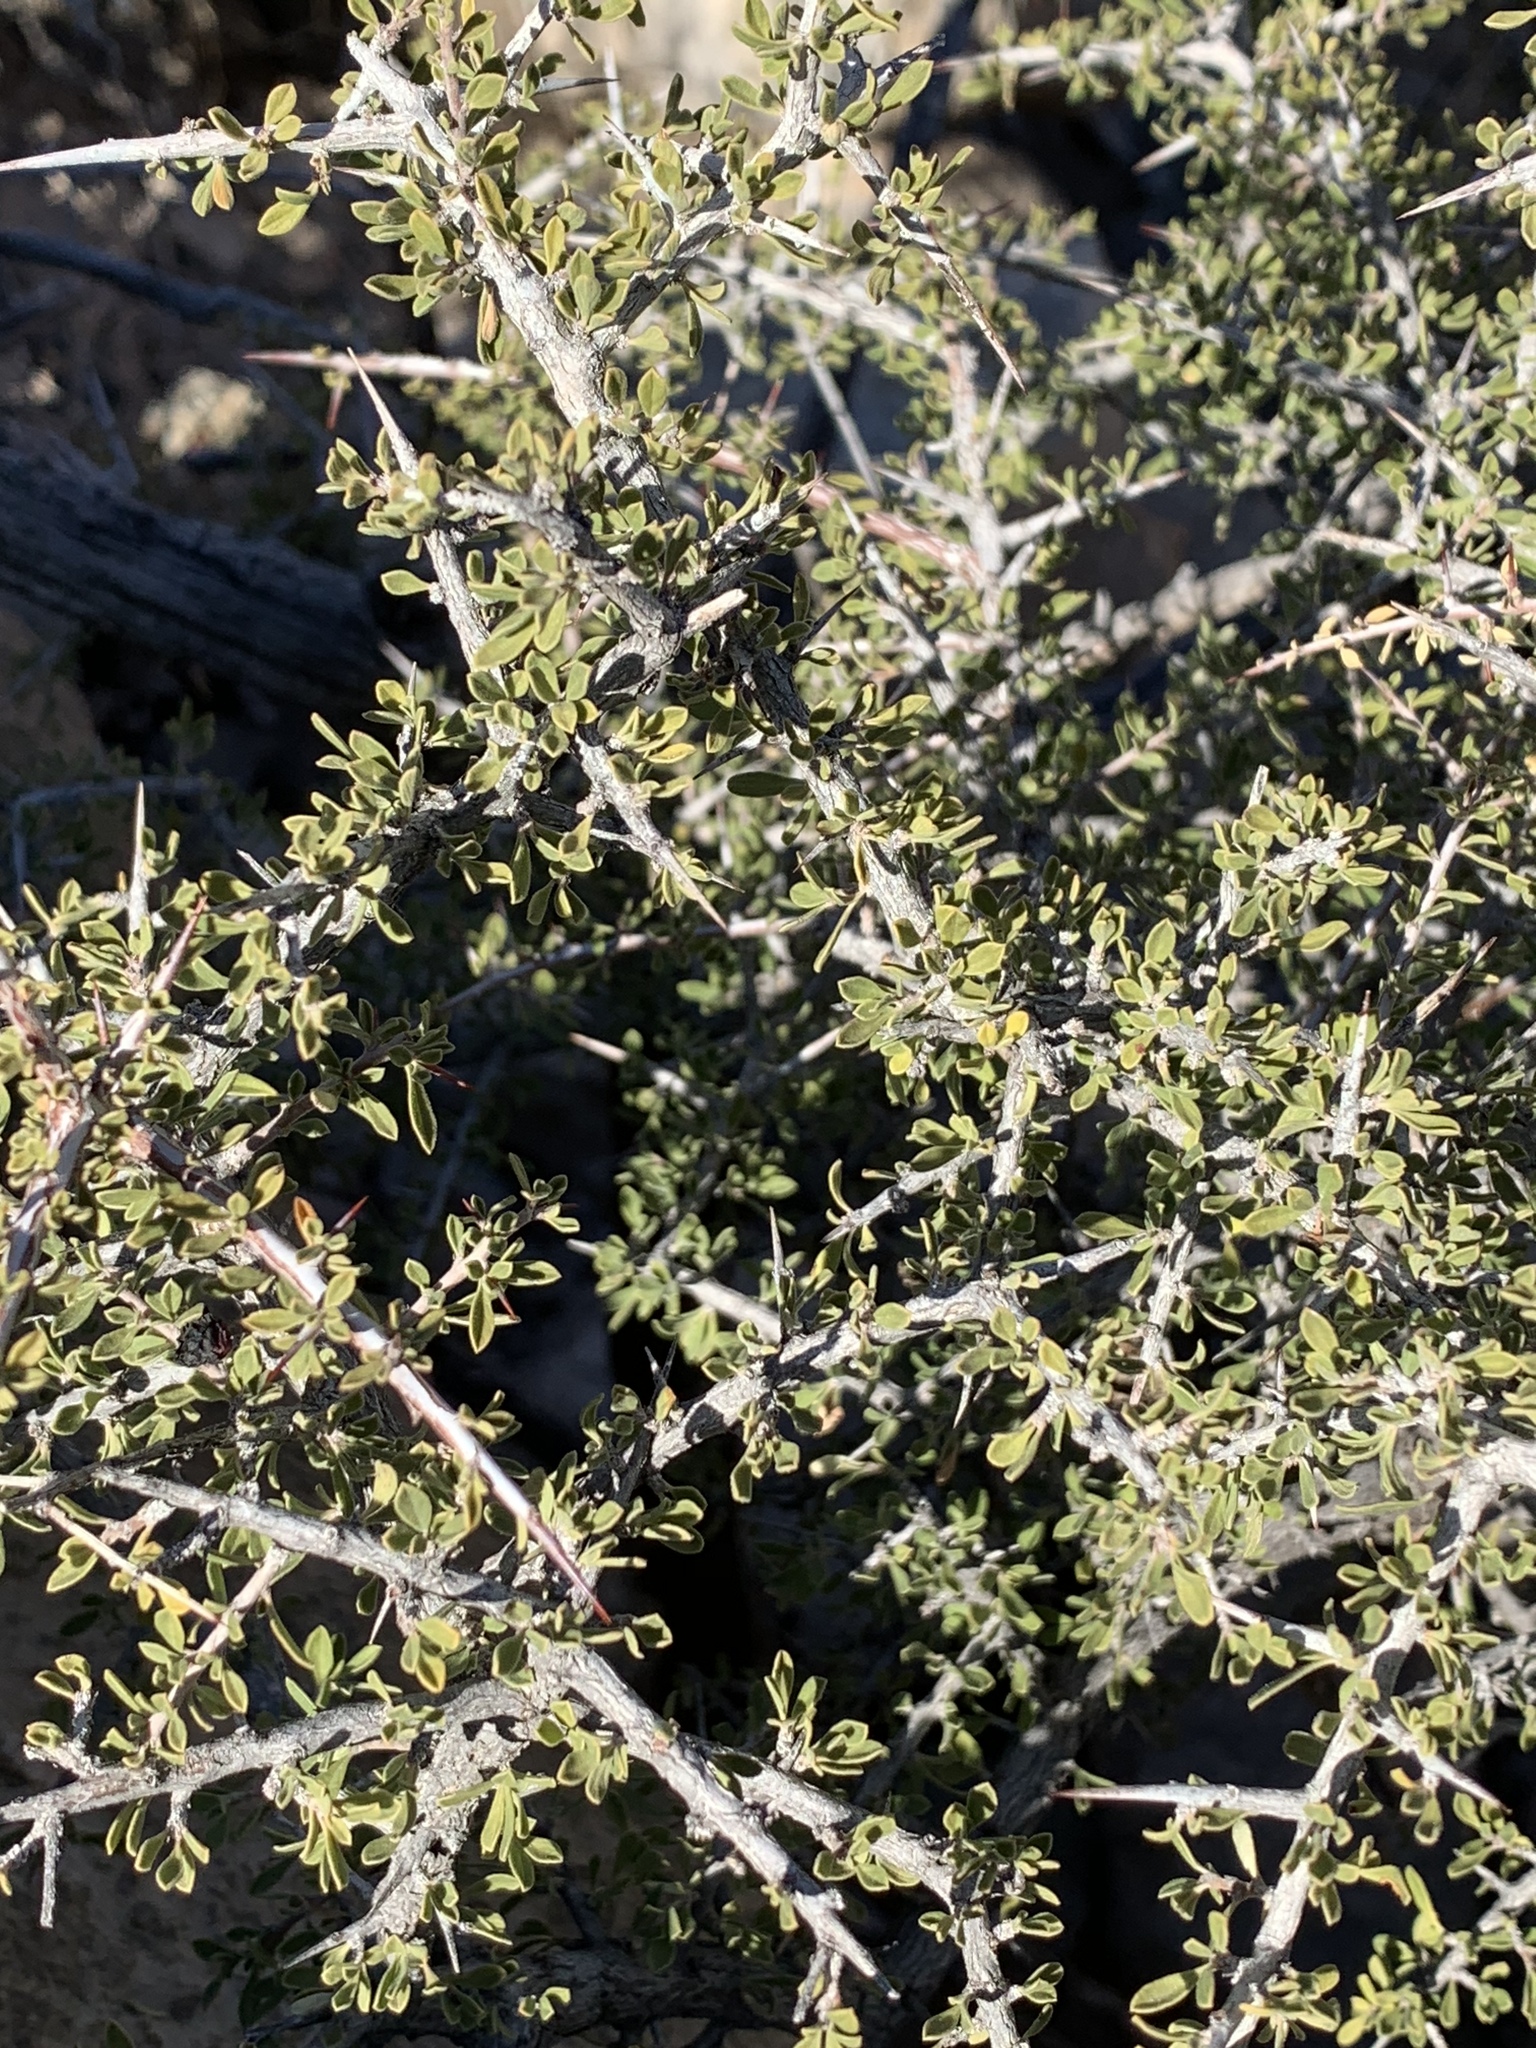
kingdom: Plantae
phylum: Tracheophyta
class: Magnoliopsida
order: Rosales
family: Rhamnaceae
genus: Condalia
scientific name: Condalia warnockii
